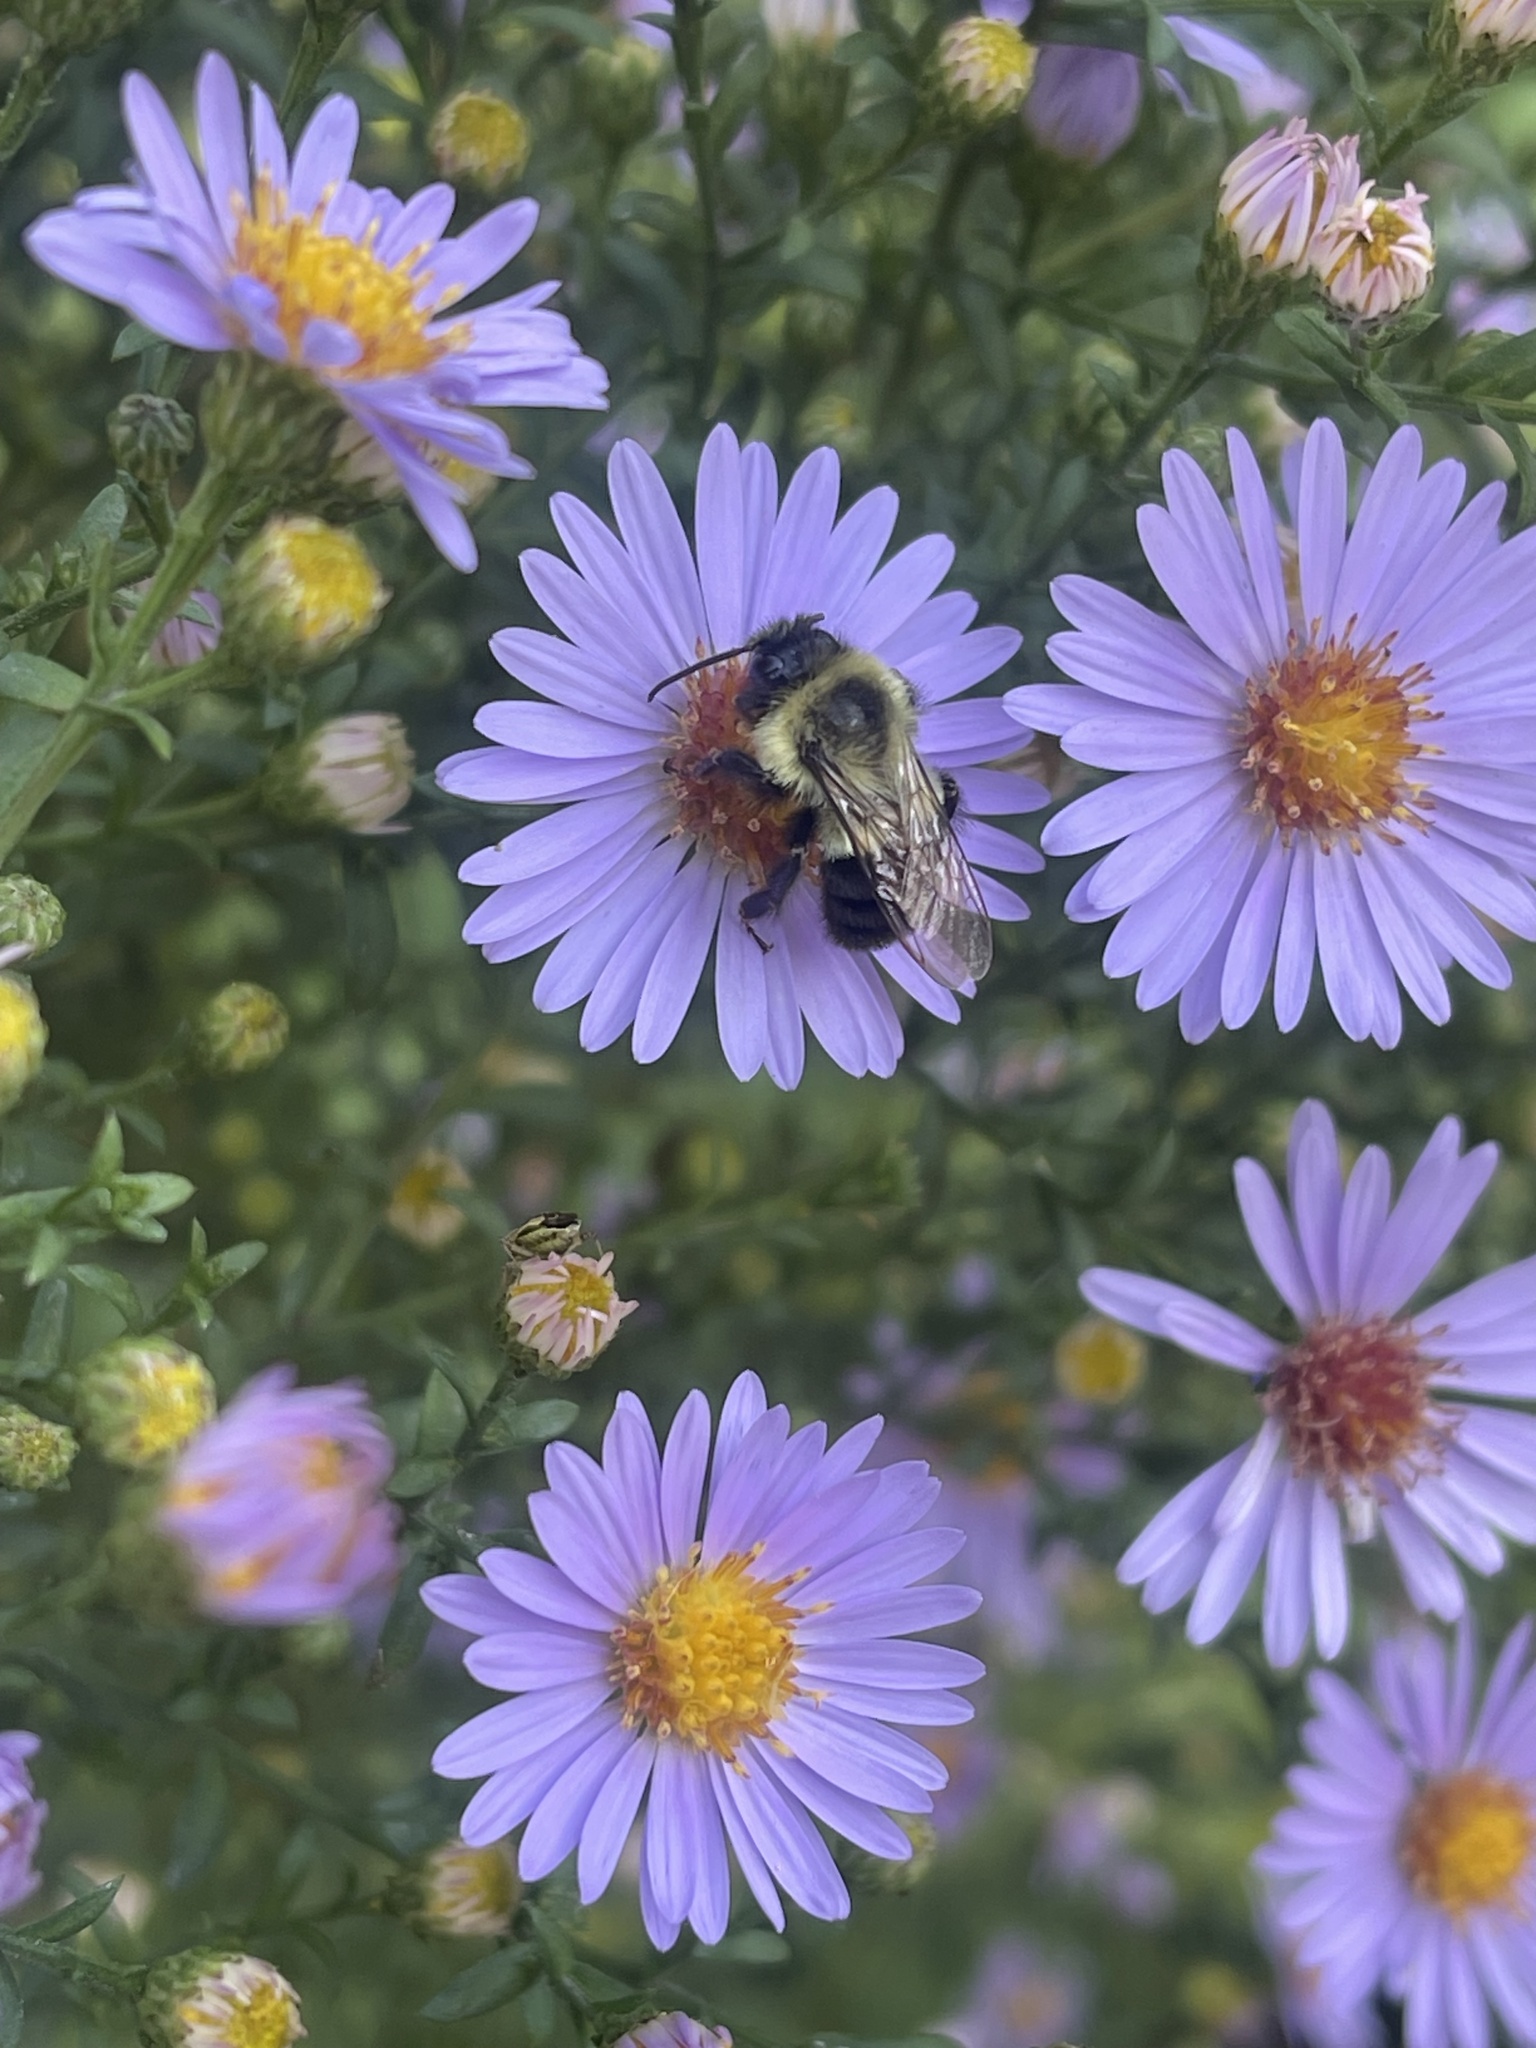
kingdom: Animalia
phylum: Arthropoda
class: Insecta
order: Hymenoptera
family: Apidae
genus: Bombus
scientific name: Bombus impatiens
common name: Common eastern bumble bee
